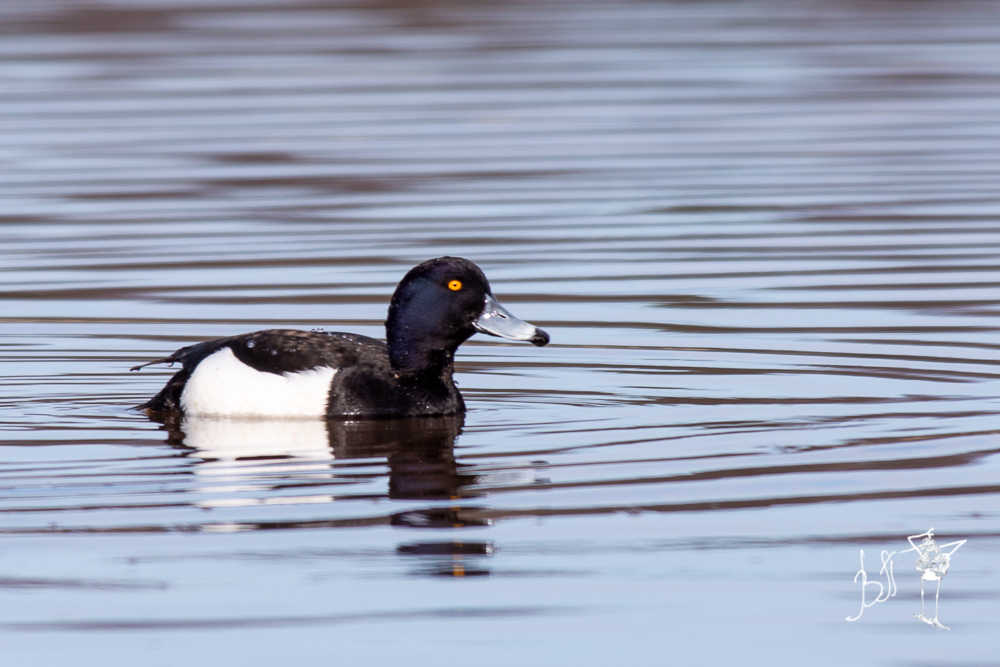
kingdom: Animalia
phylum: Chordata
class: Aves
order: Anseriformes
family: Anatidae
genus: Aythya
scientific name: Aythya fuligula
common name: Tufted duck
